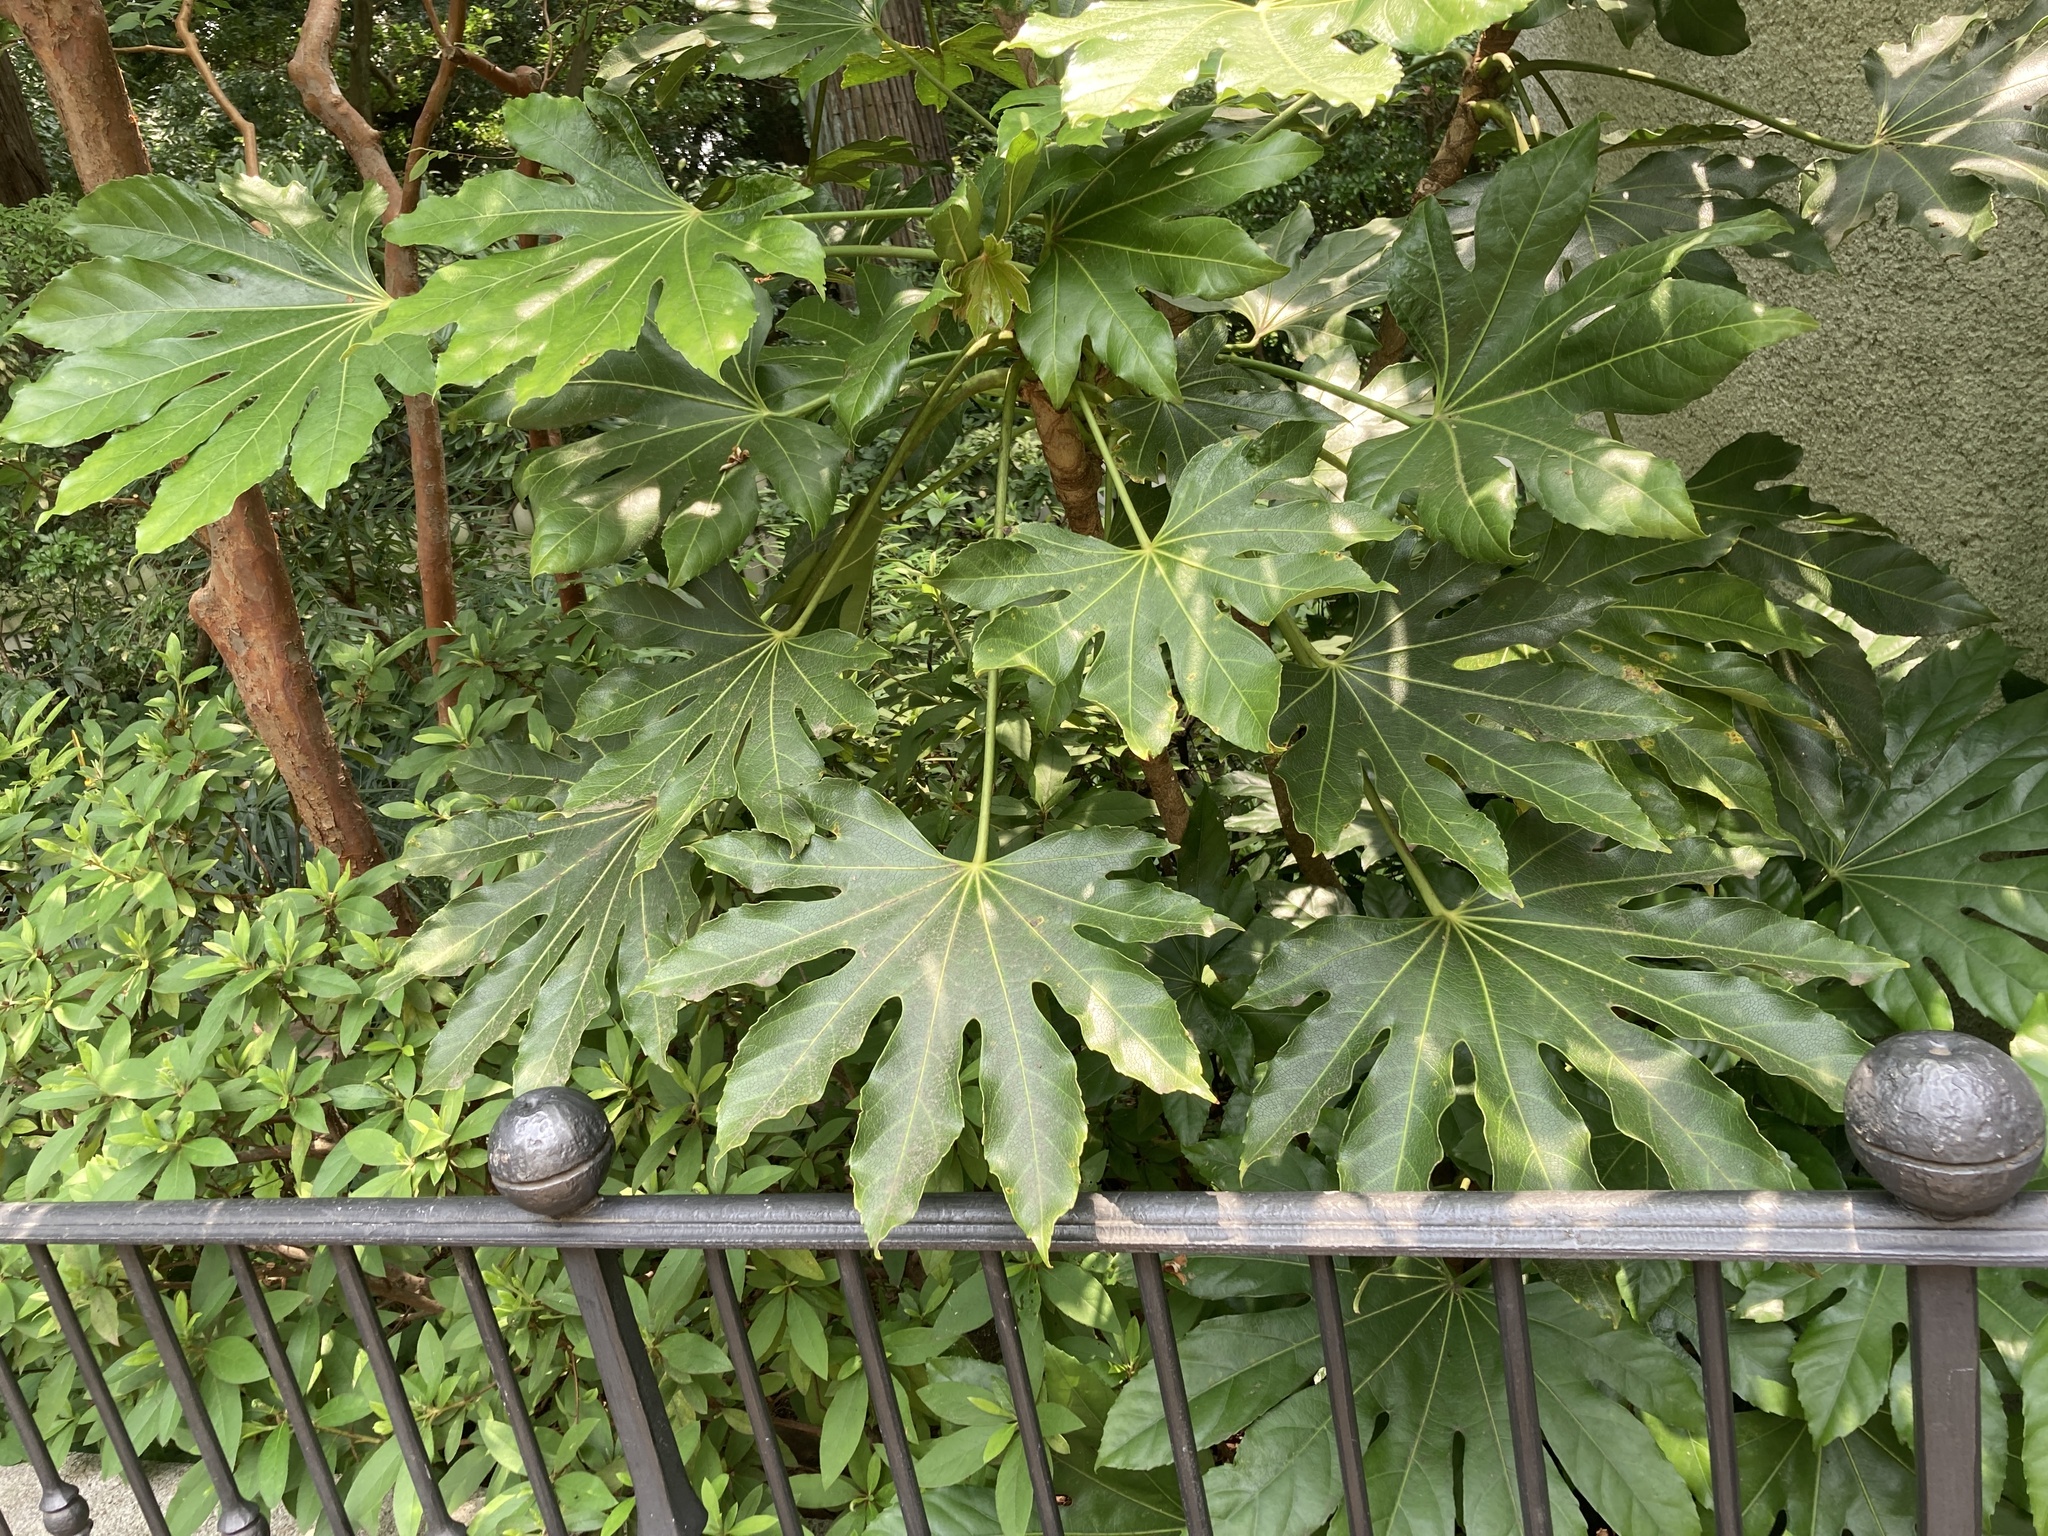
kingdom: Plantae
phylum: Tracheophyta
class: Magnoliopsida
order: Apiales
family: Araliaceae
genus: Fatsia
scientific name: Fatsia japonica
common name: Fatsia
